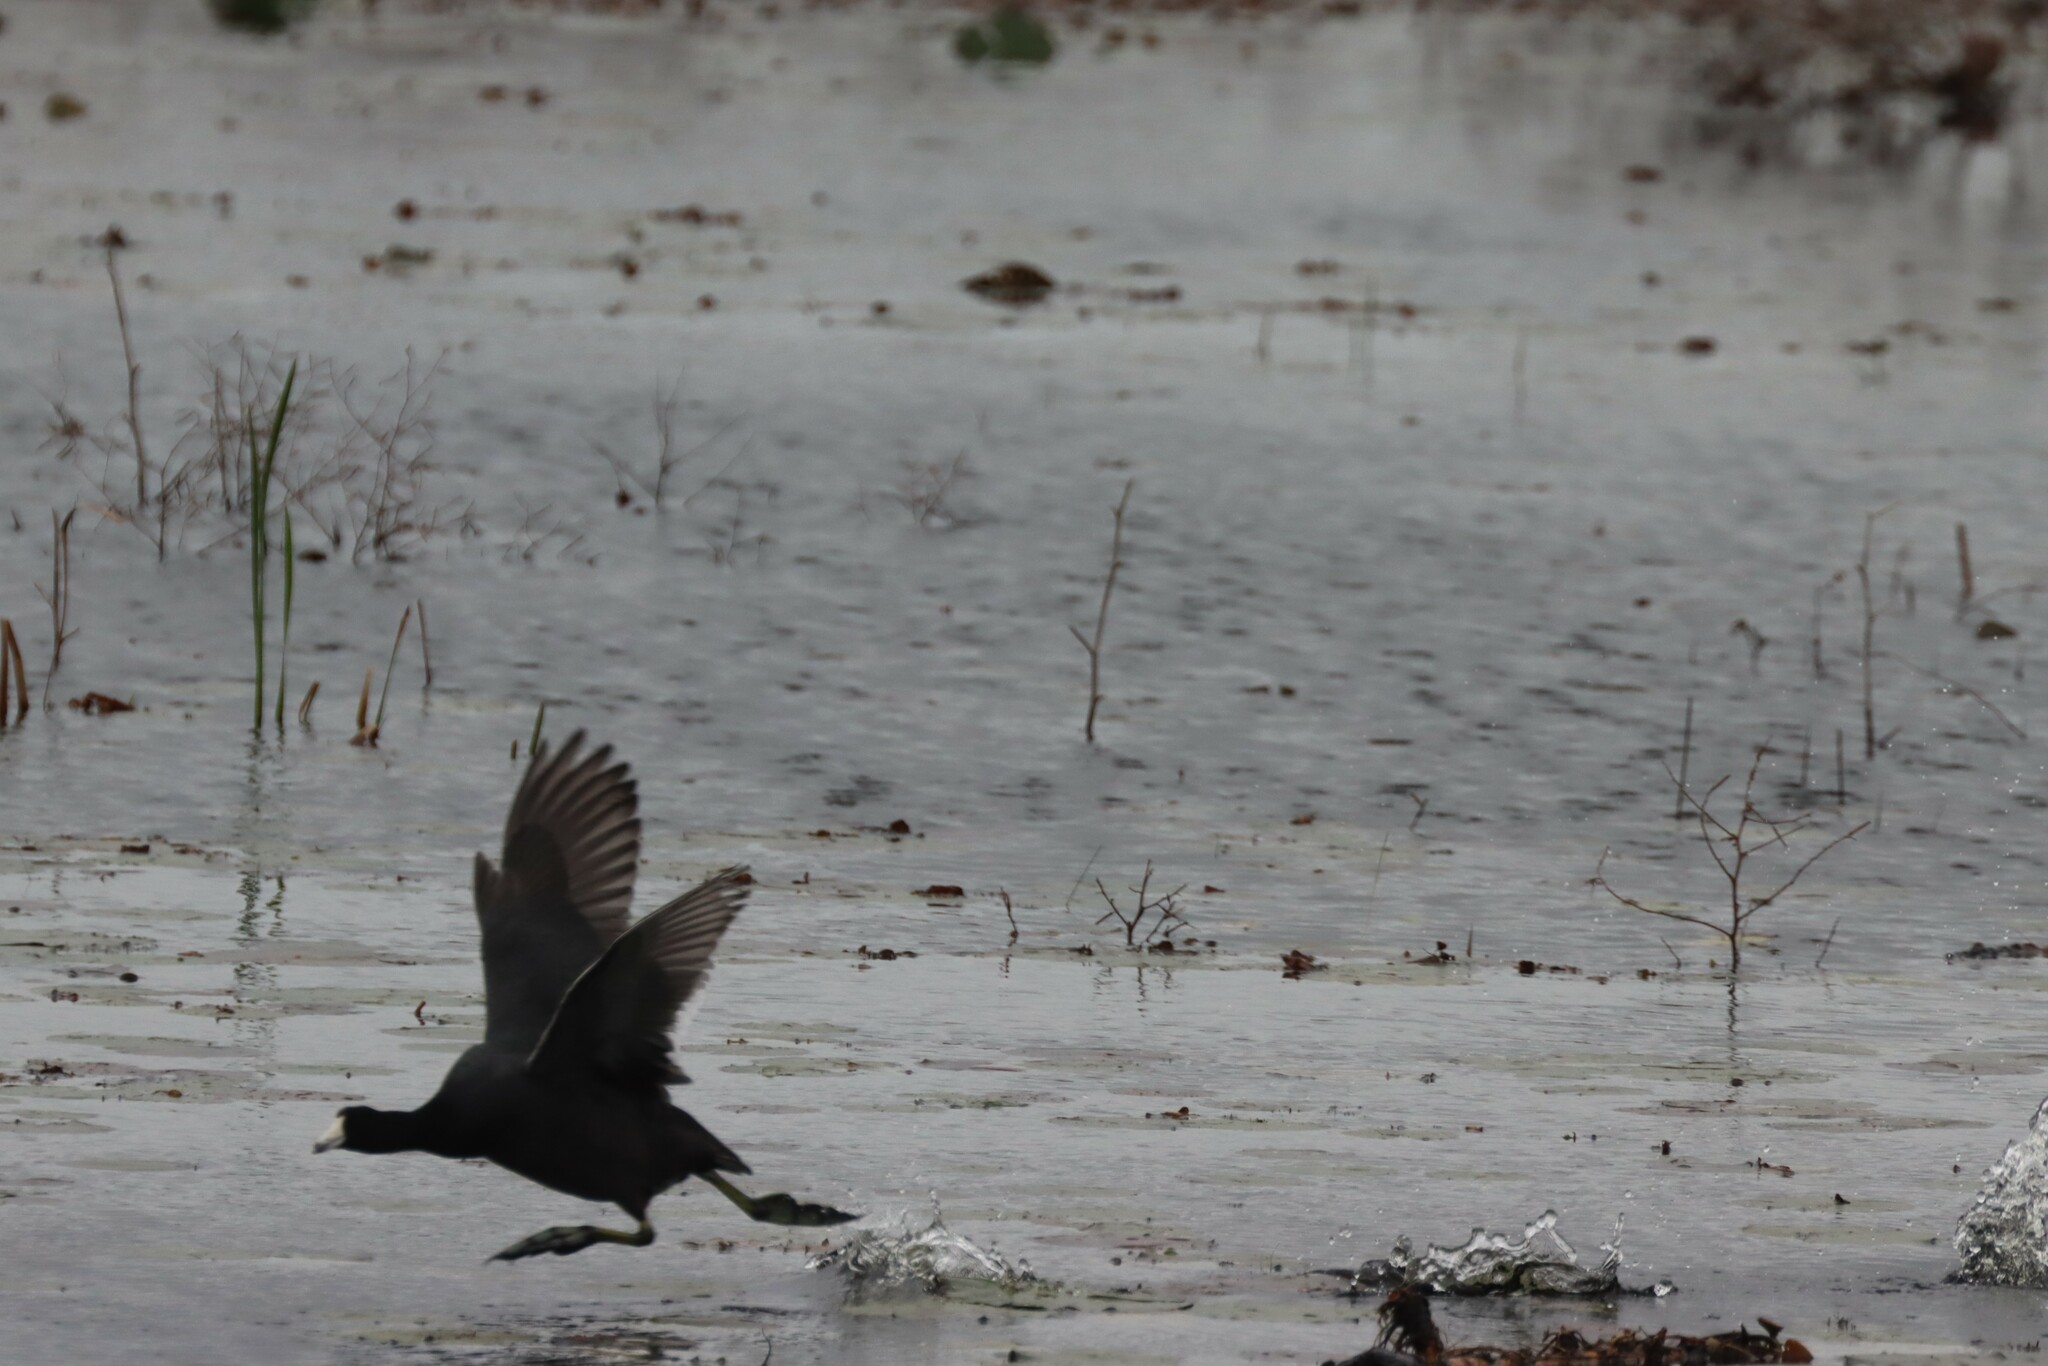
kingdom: Animalia
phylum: Chordata
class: Aves
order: Gruiformes
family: Rallidae
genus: Fulica
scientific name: Fulica americana
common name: American coot
